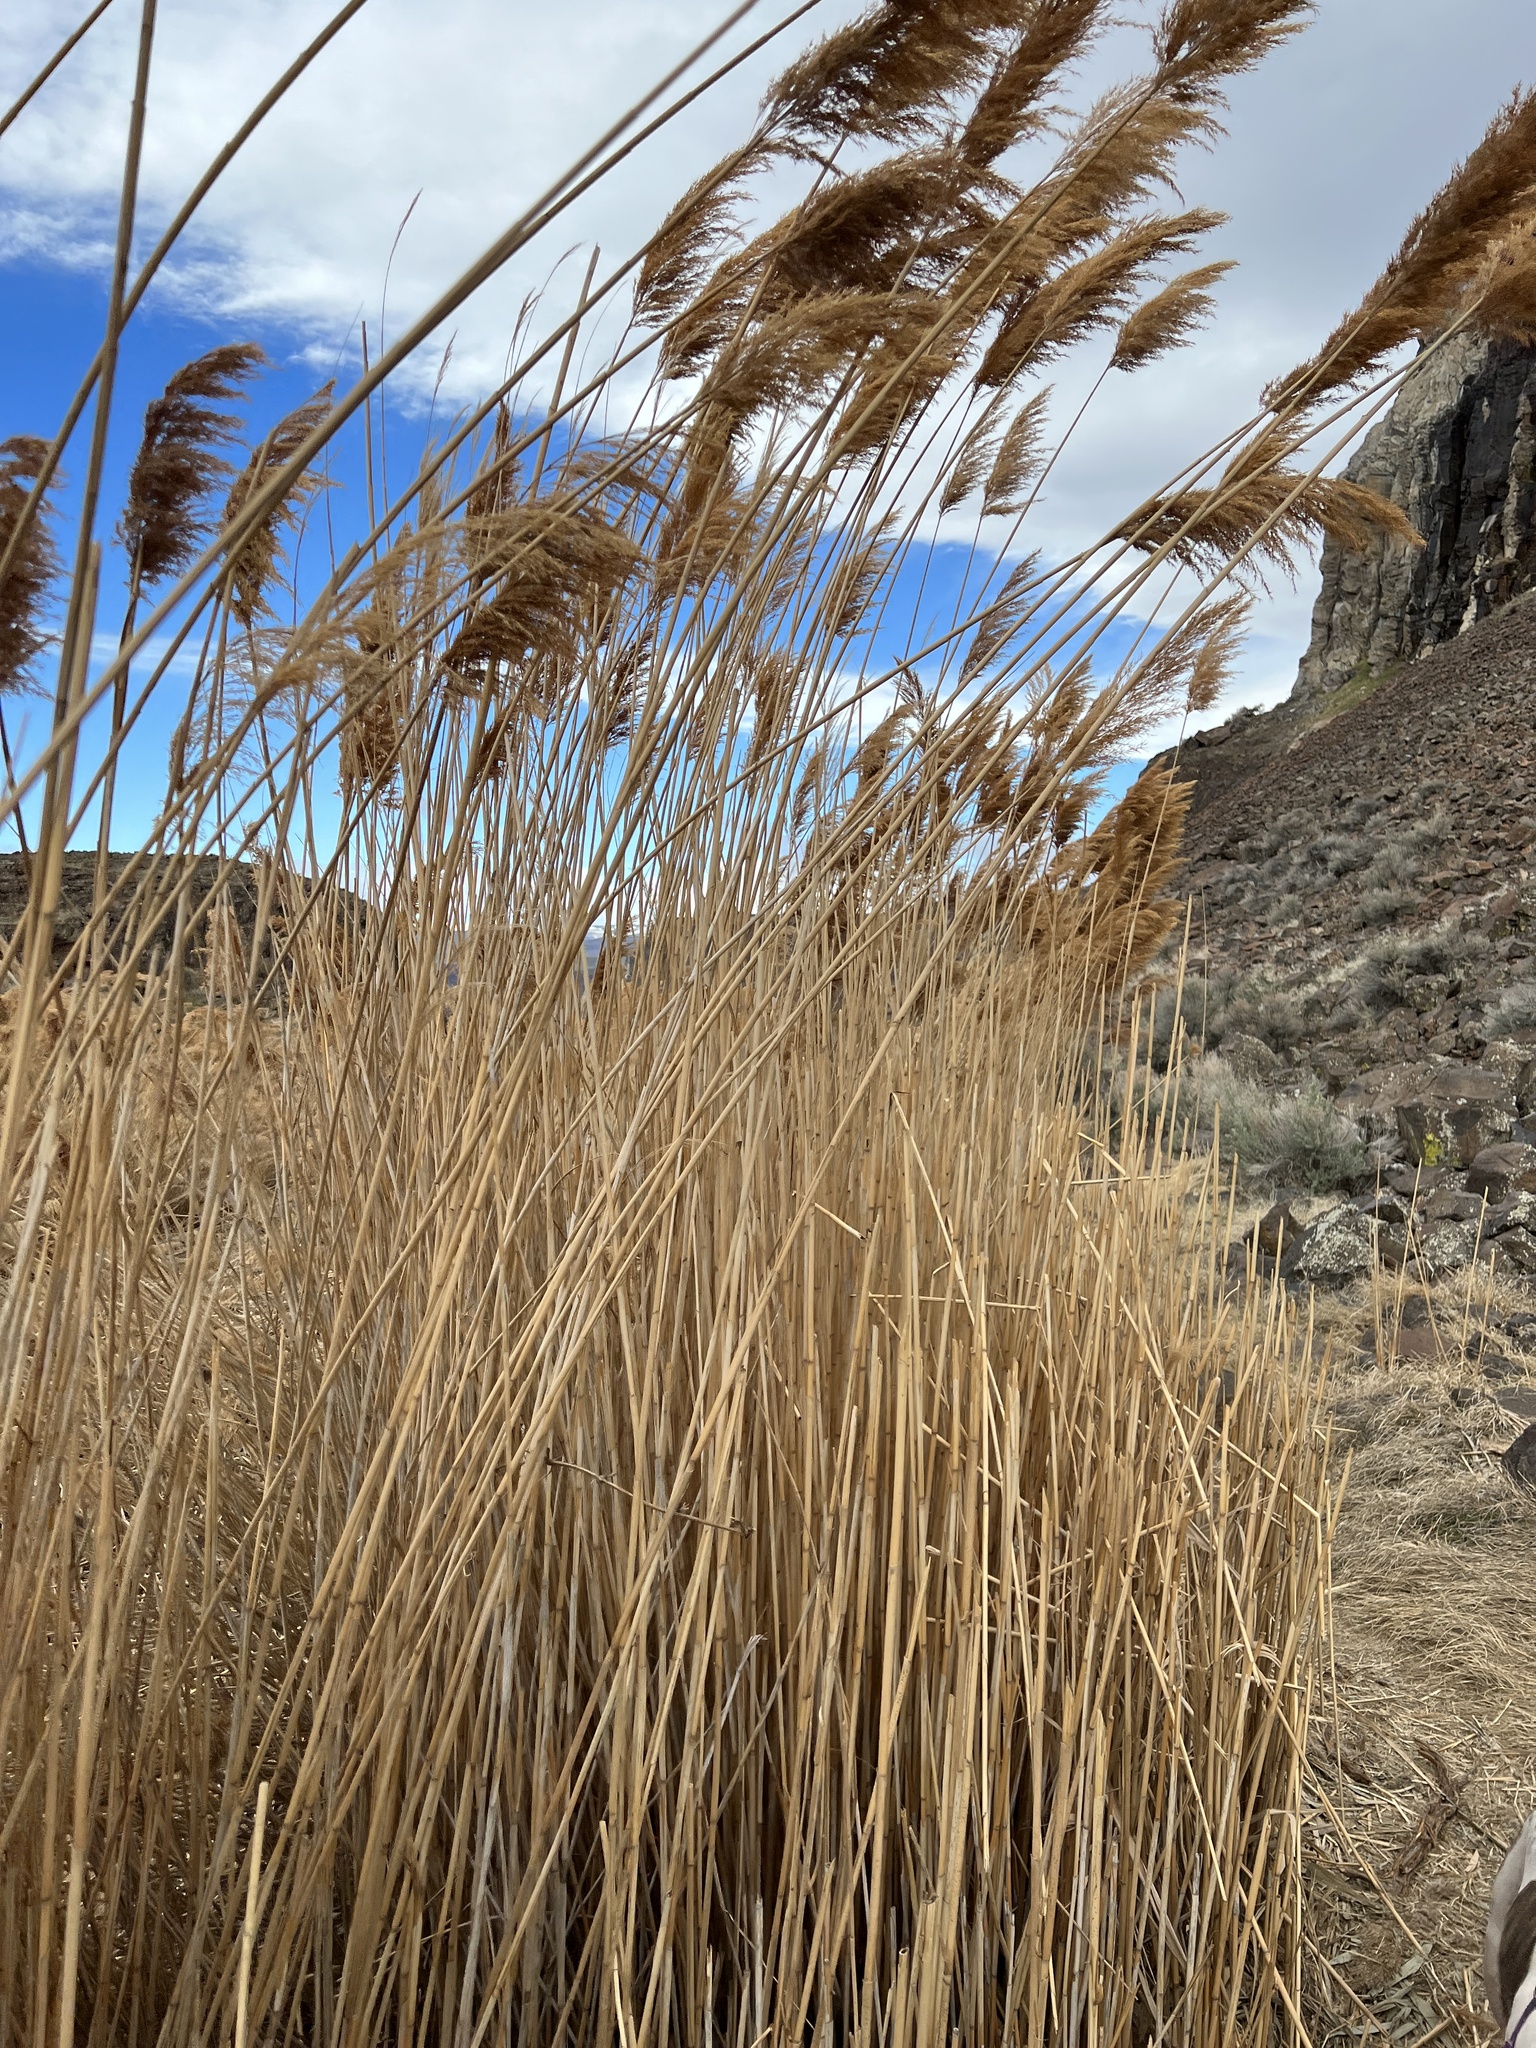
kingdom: Plantae
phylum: Tracheophyta
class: Liliopsida
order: Poales
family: Poaceae
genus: Phragmites
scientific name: Phragmites australis
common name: Common reed
